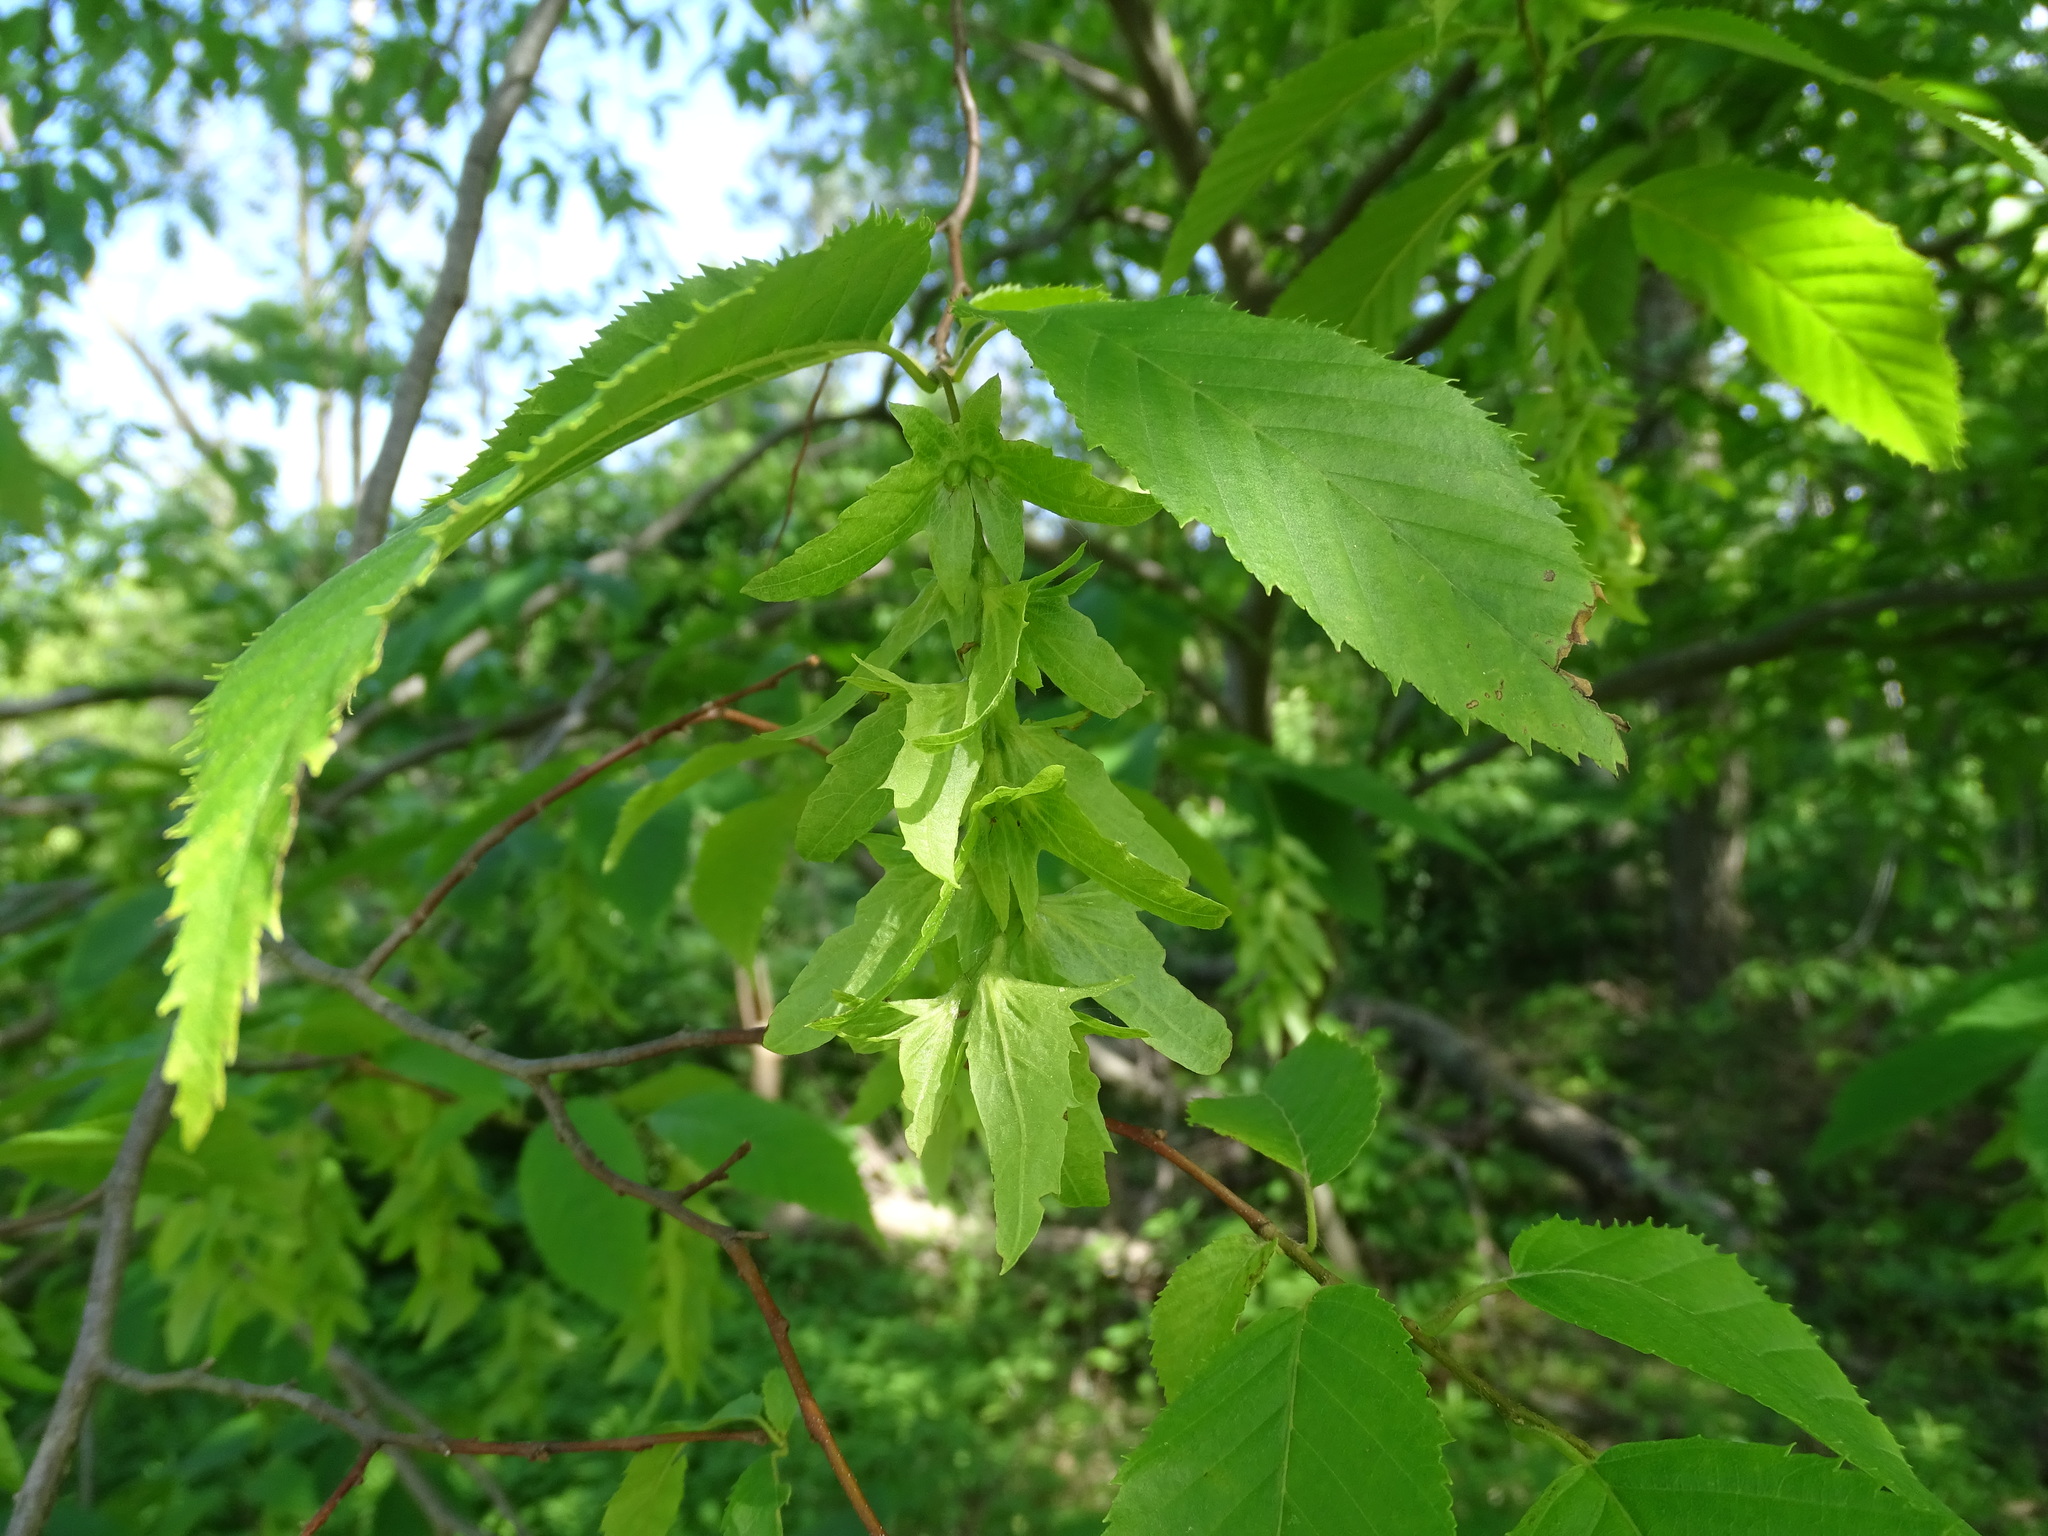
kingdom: Plantae
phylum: Tracheophyta
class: Magnoliopsida
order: Fagales
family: Betulaceae
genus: Carpinus
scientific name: Carpinus caroliniana
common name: American hornbeam
